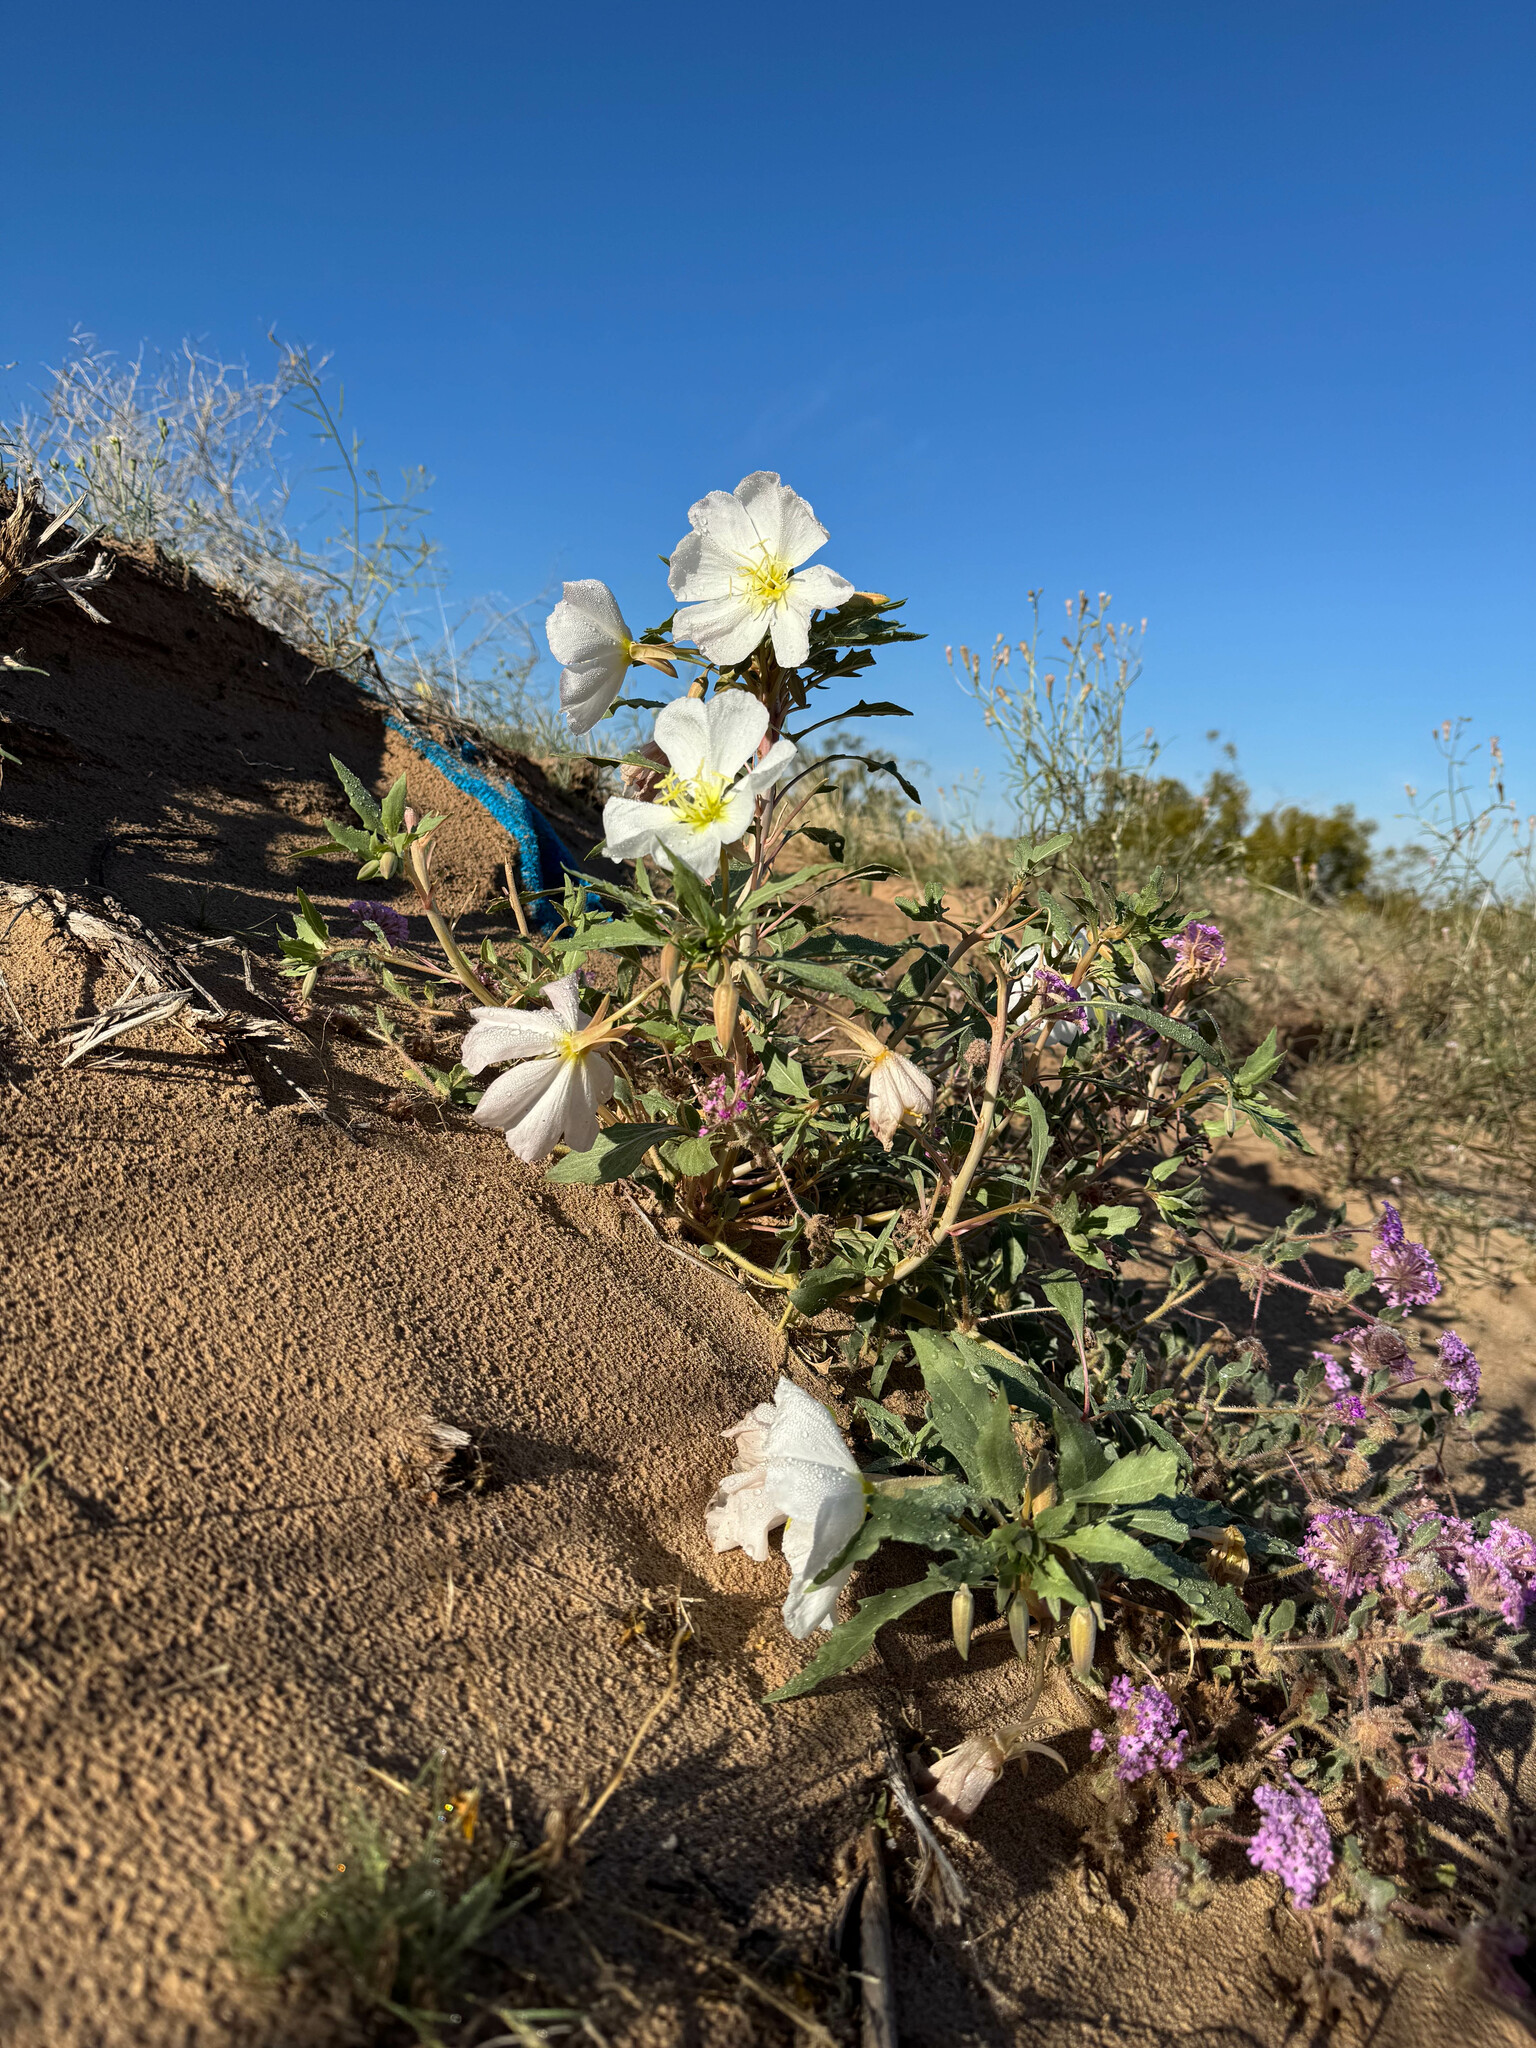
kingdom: Plantae
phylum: Tracheophyta
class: Magnoliopsida
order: Myrtales
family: Onagraceae
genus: Oenothera
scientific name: Oenothera deltoides
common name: Basket evening-primrose
